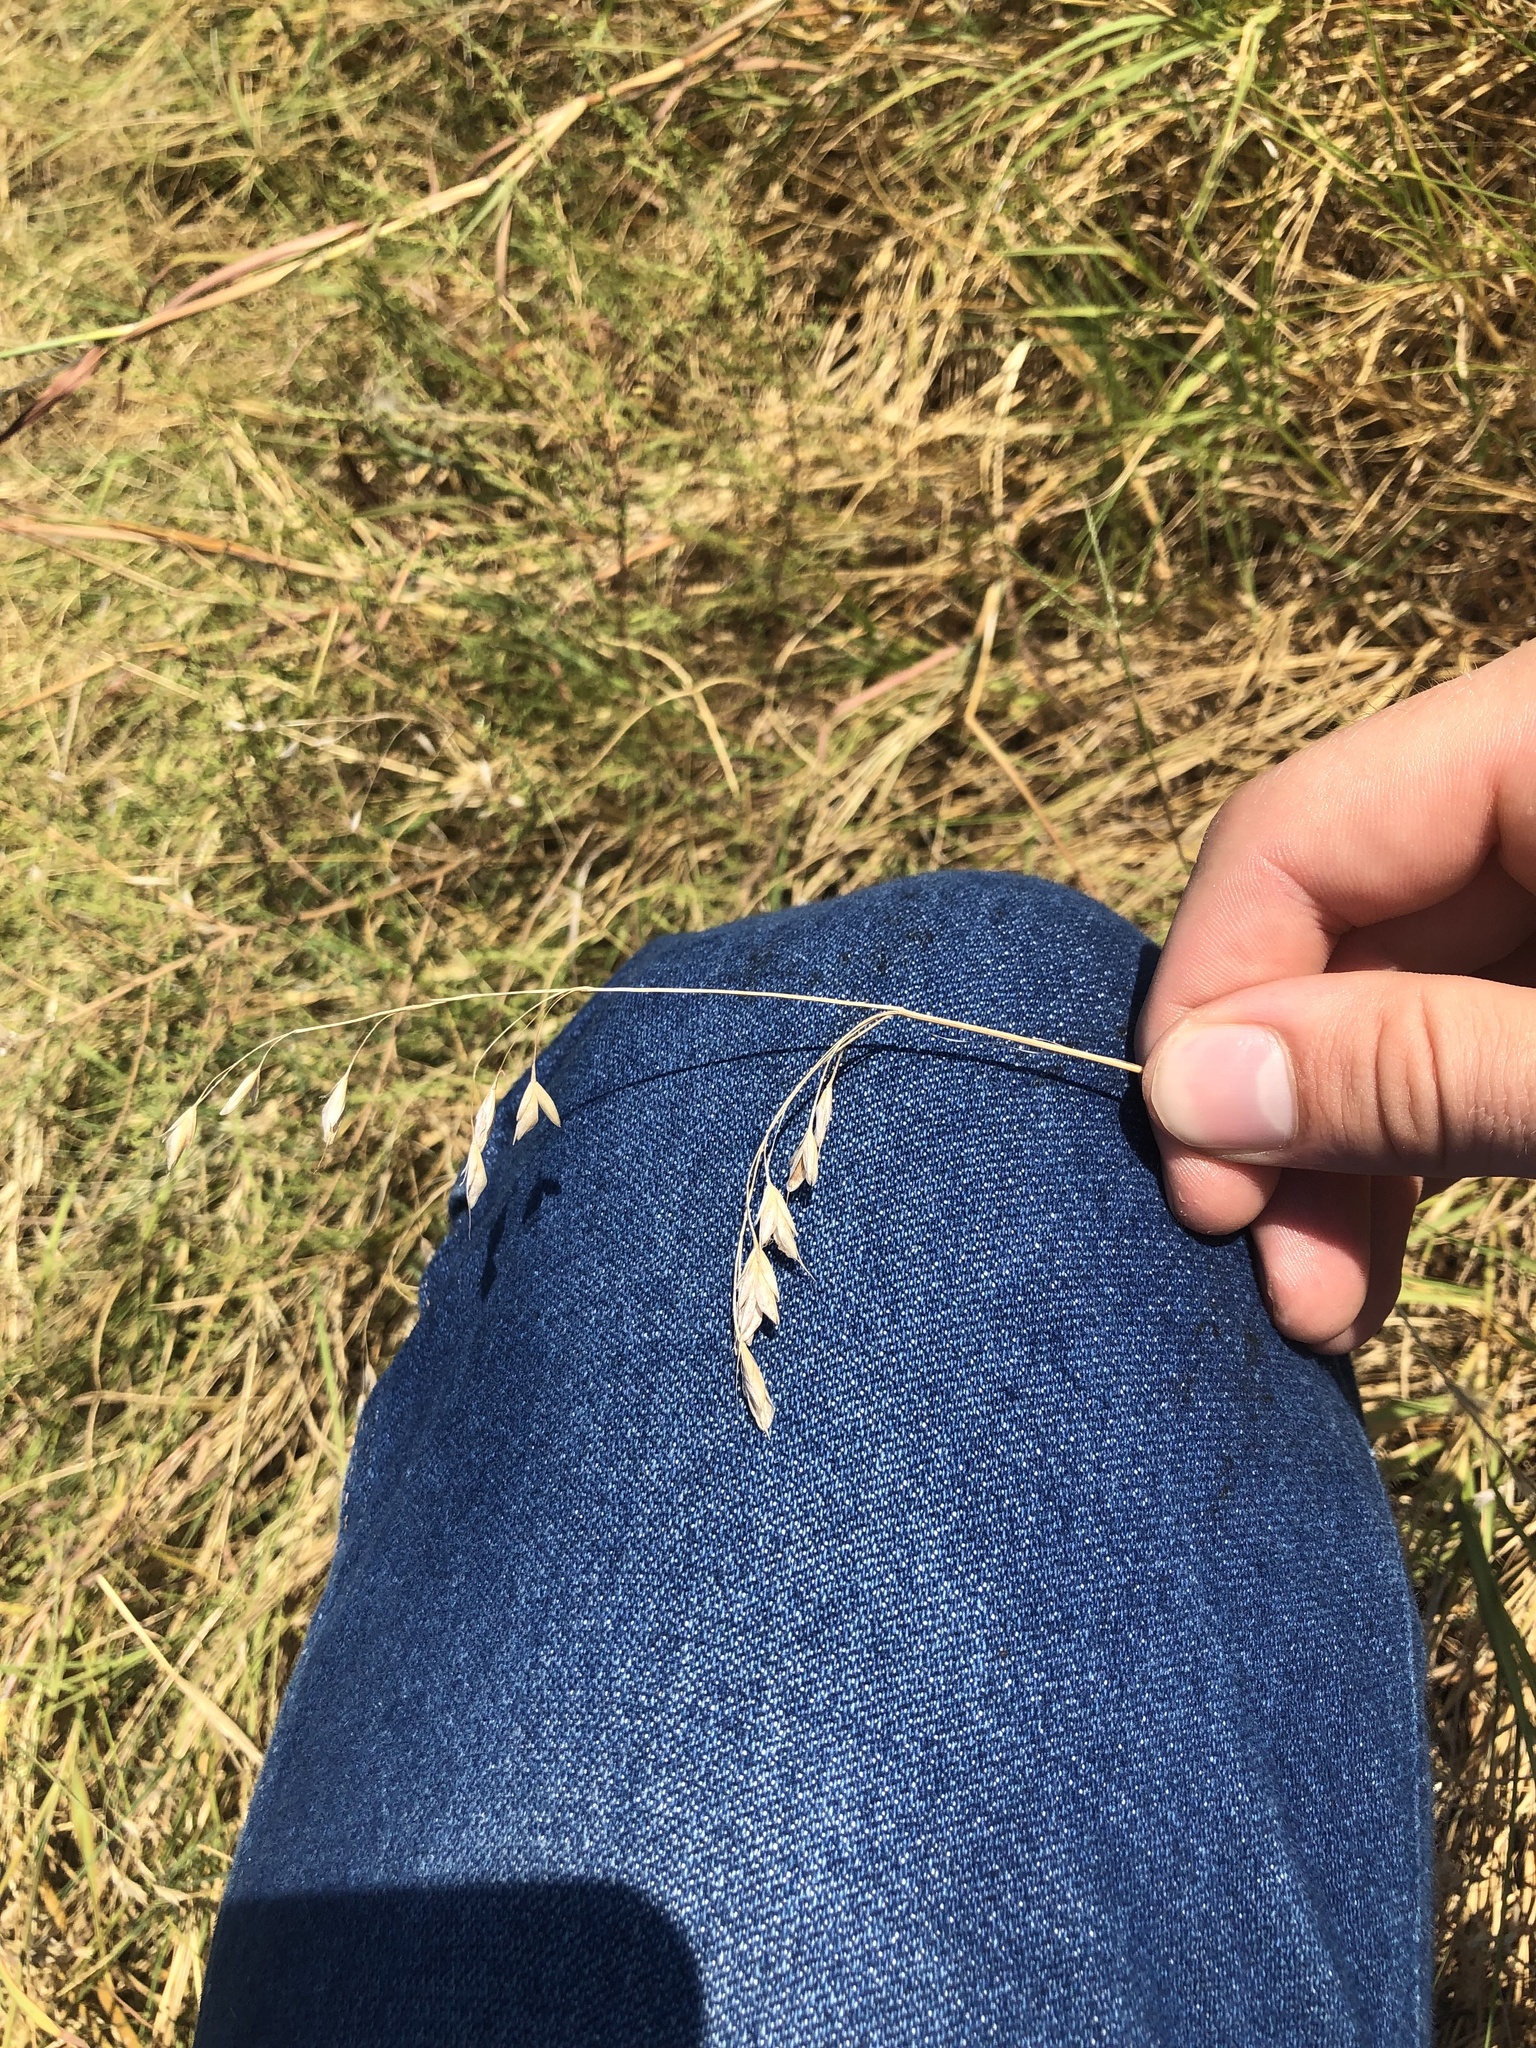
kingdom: Plantae
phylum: Tracheophyta
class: Liliopsida
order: Poales
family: Poaceae
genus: Bromus
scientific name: Bromus japonicus
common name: Japanese brome
